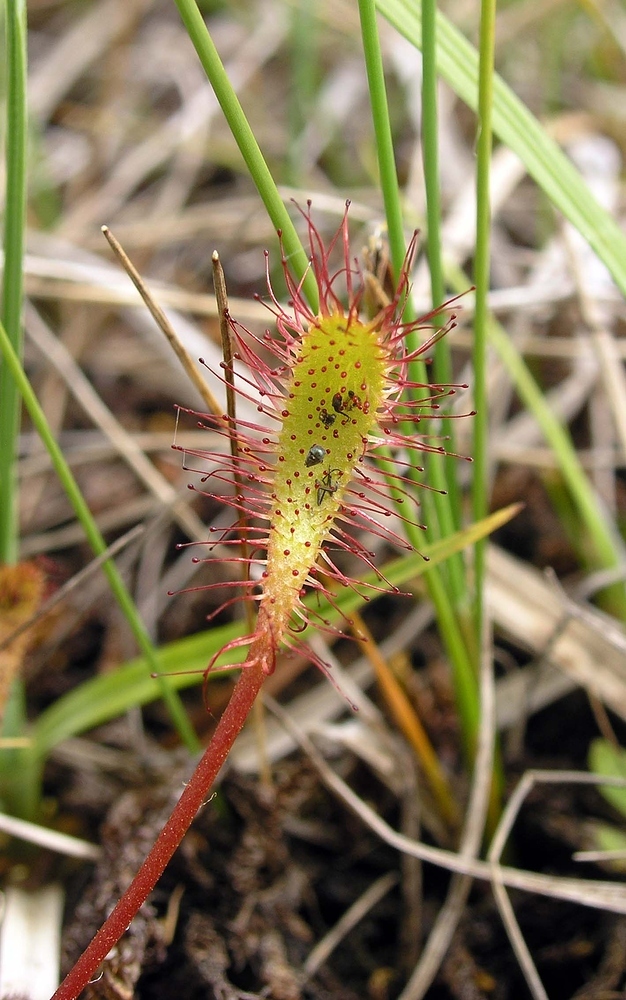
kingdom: Plantae
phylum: Tracheophyta
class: Magnoliopsida
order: Caryophyllales
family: Droseraceae
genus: Drosera
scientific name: Drosera anglica
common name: Great sundew
